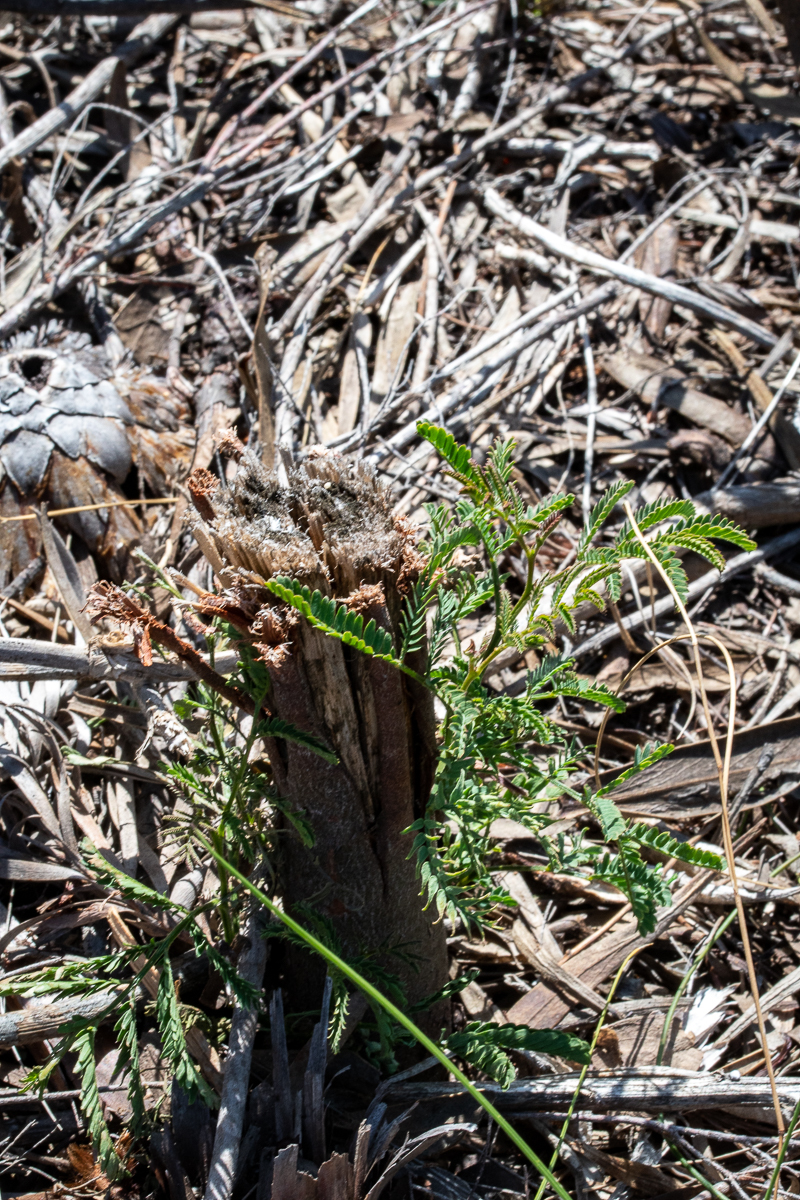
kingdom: Plantae
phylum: Tracheophyta
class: Magnoliopsida
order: Fabales
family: Fabaceae
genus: Paraserianthes
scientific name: Paraserianthes lophantha
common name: Plume albizia
